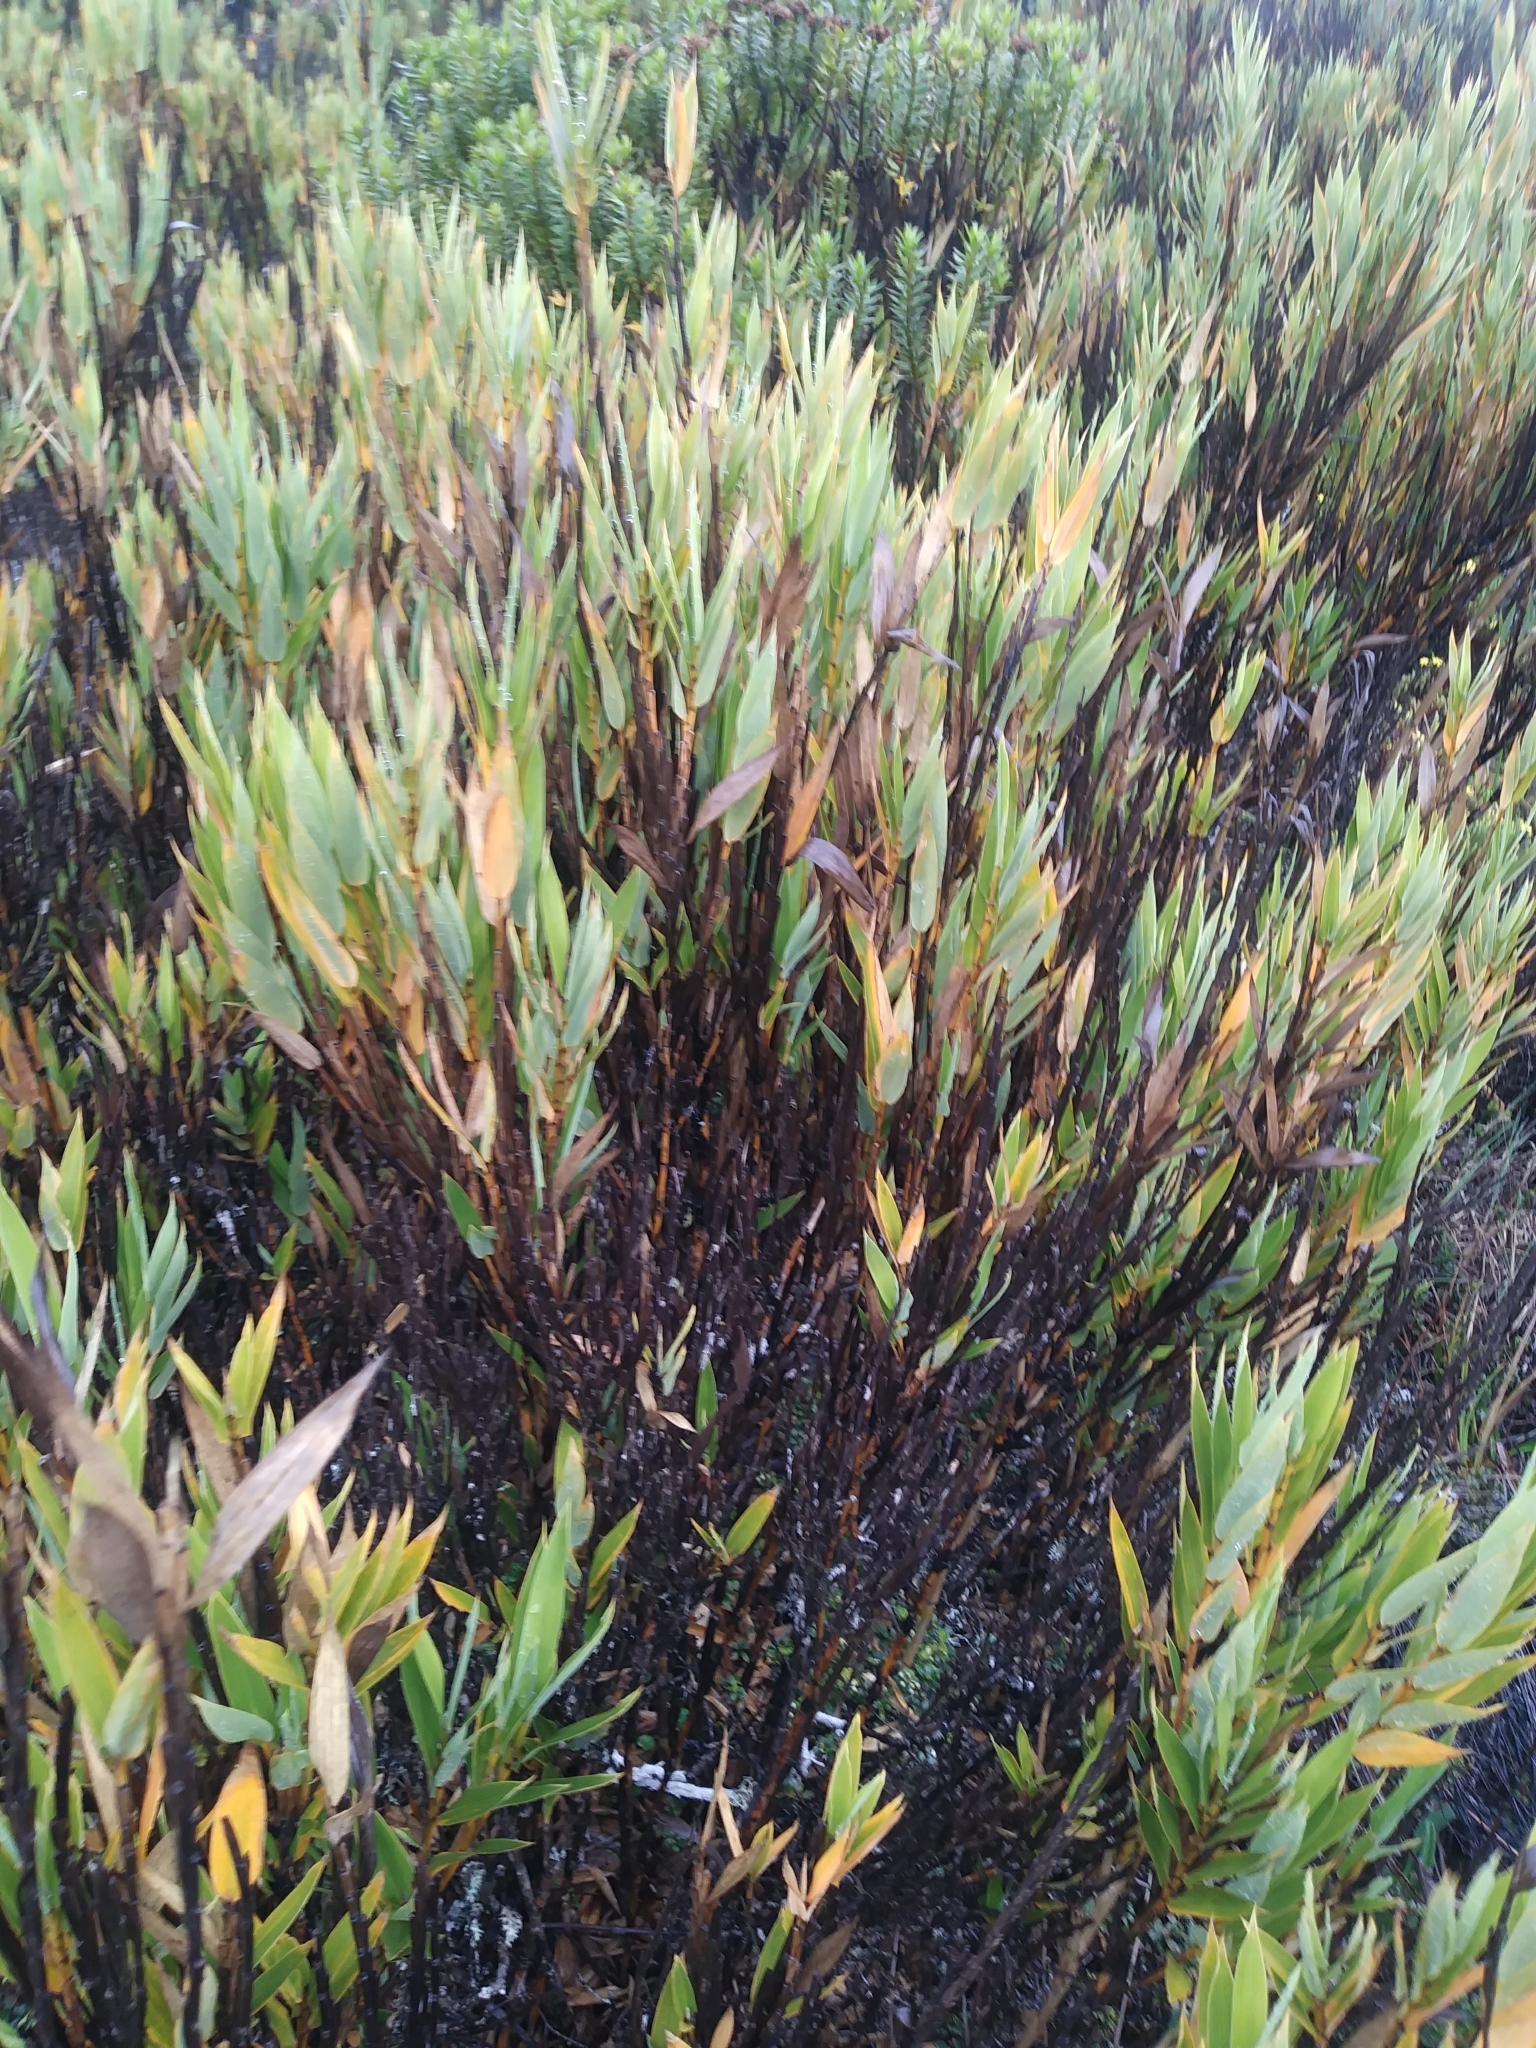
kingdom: Plantae
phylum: Tracheophyta
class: Liliopsida
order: Poales
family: Poaceae
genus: Chusquea
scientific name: Chusquea subtessellata
